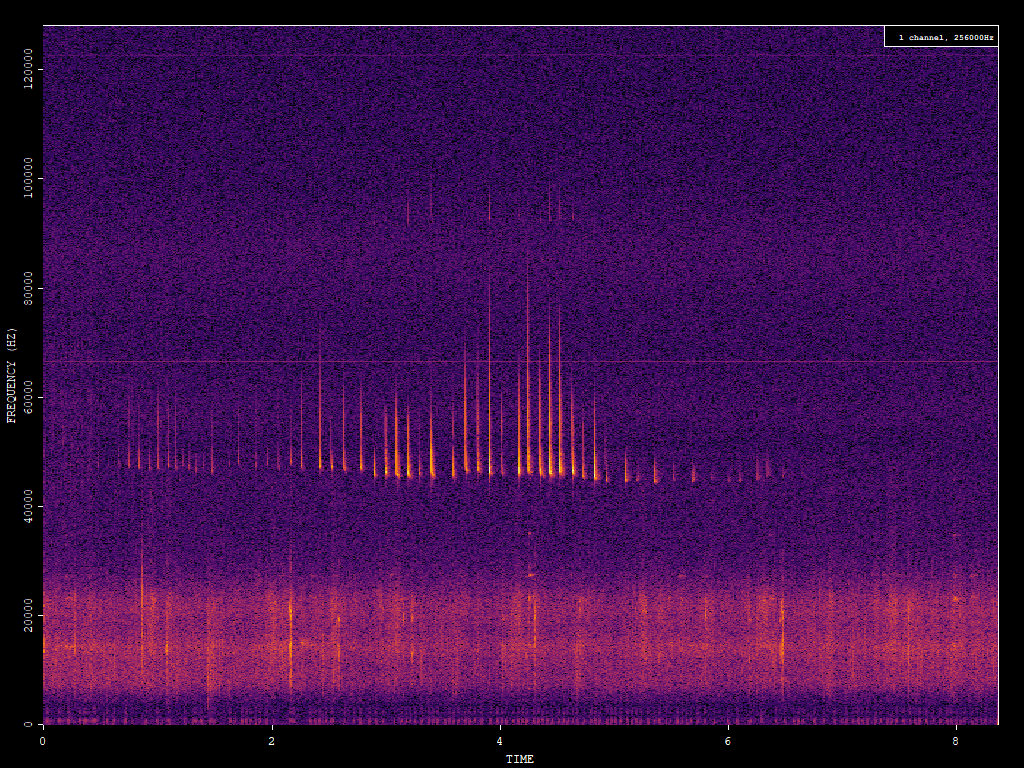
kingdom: Animalia
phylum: Chordata
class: Mammalia
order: Chiroptera
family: Vespertilionidae
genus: Pipistrellus
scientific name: Pipistrellus pipistrellus
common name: Common pipistrelle
